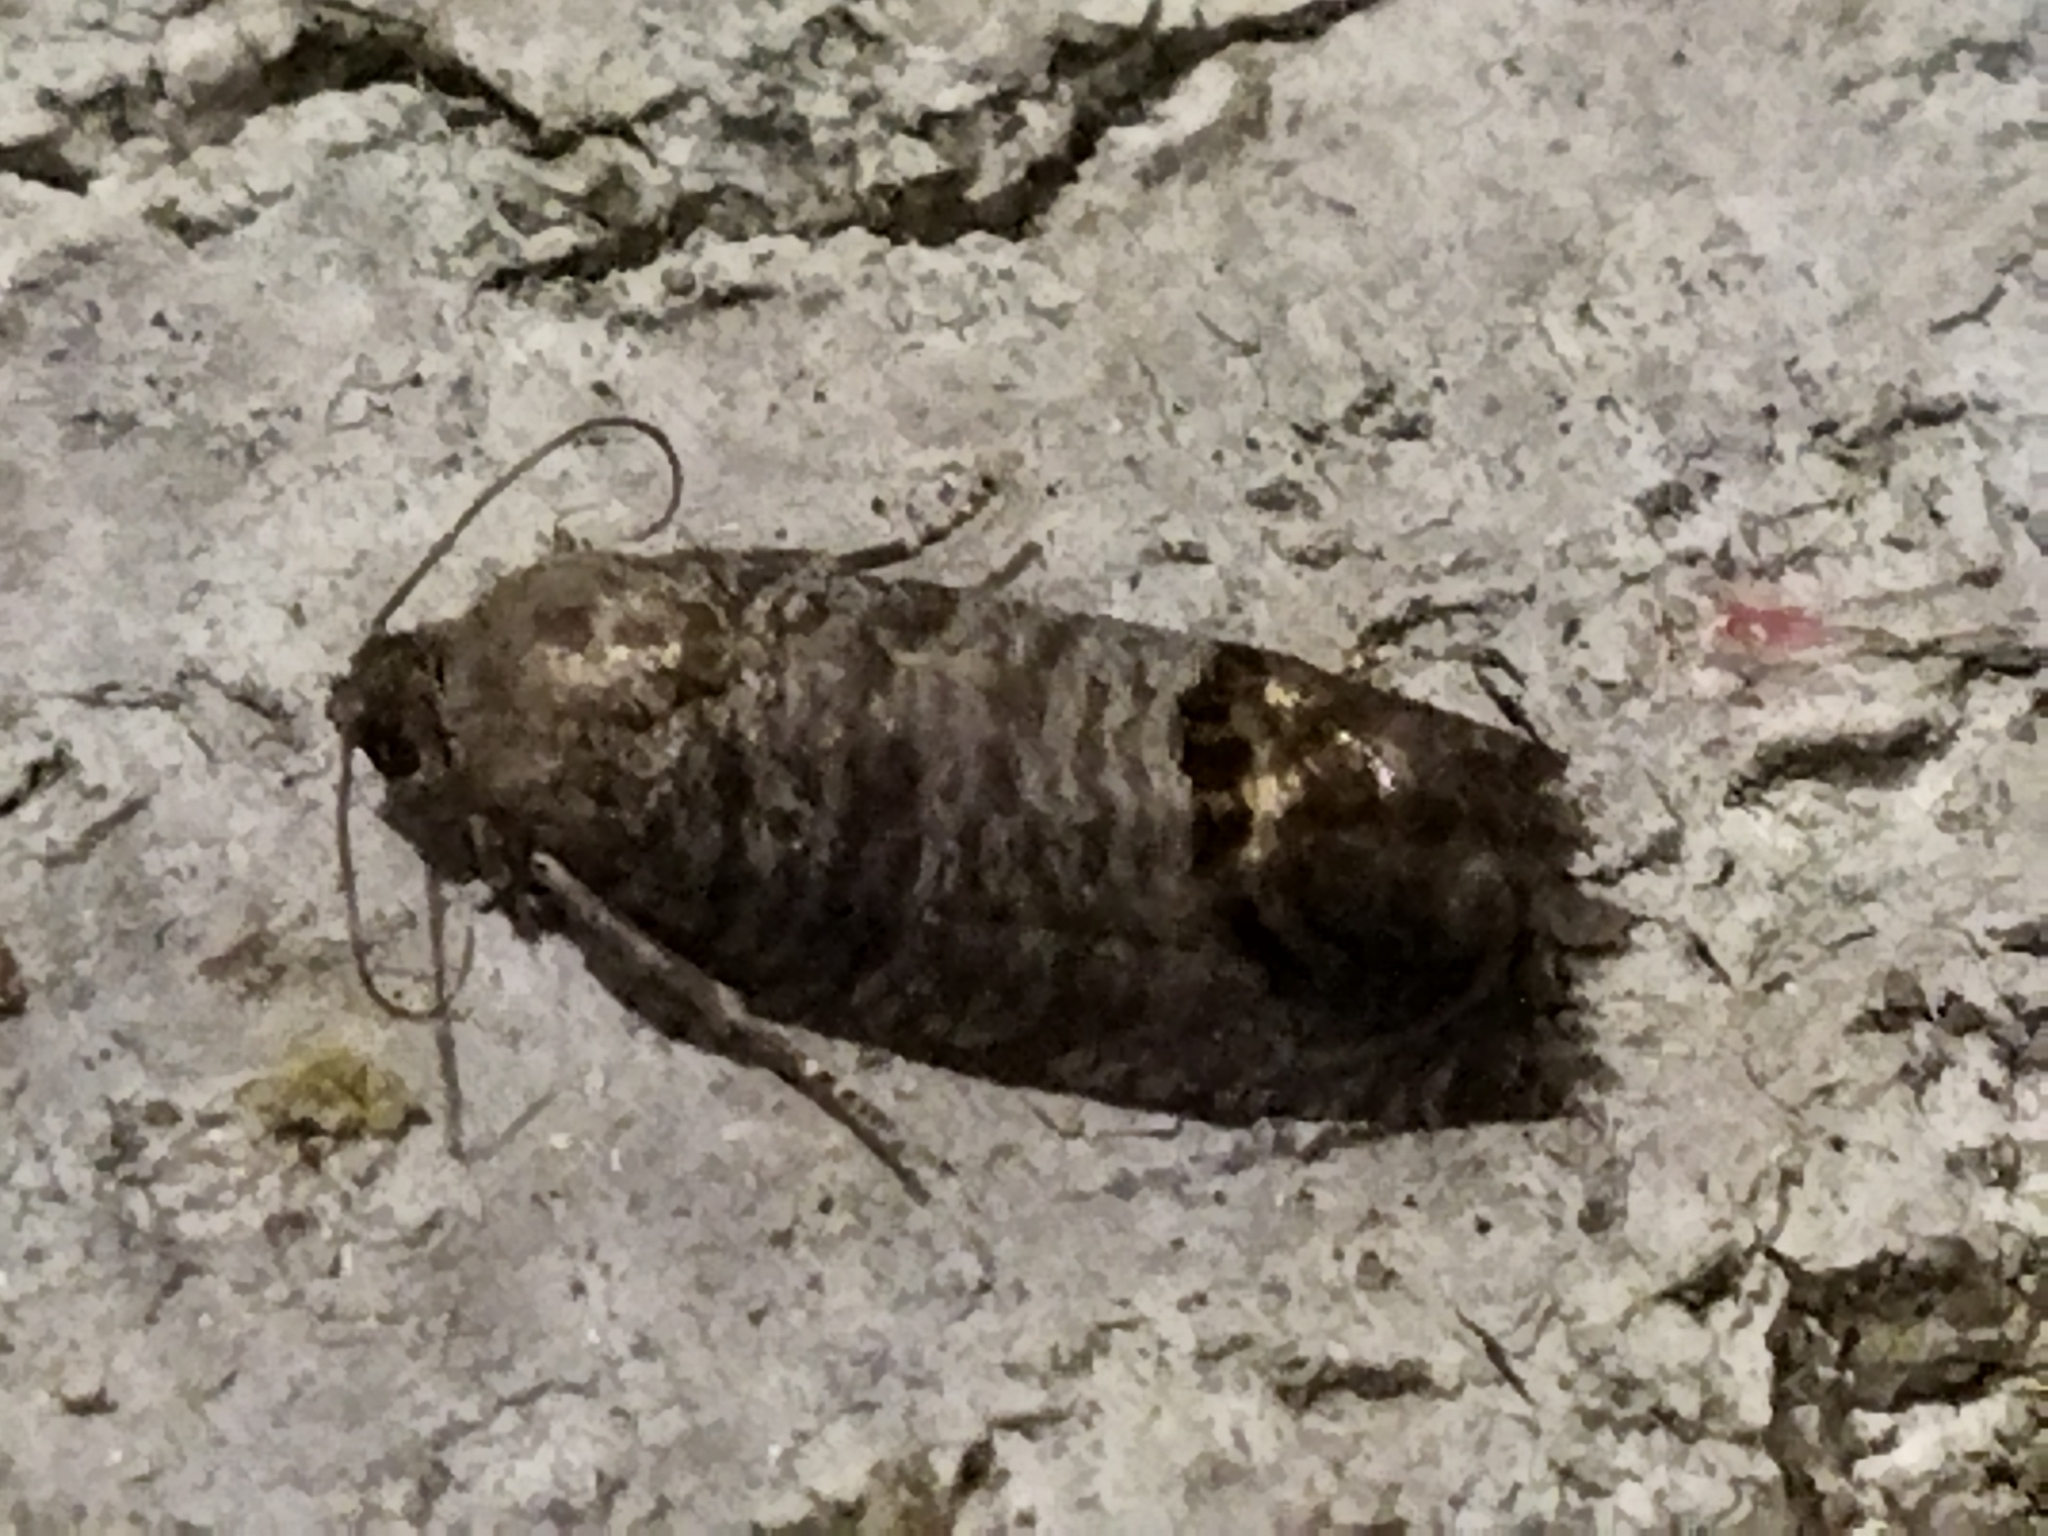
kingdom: Animalia
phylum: Arthropoda
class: Insecta
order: Lepidoptera
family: Tortricidae
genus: Cydia
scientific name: Cydia pomonella
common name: Codling moth
